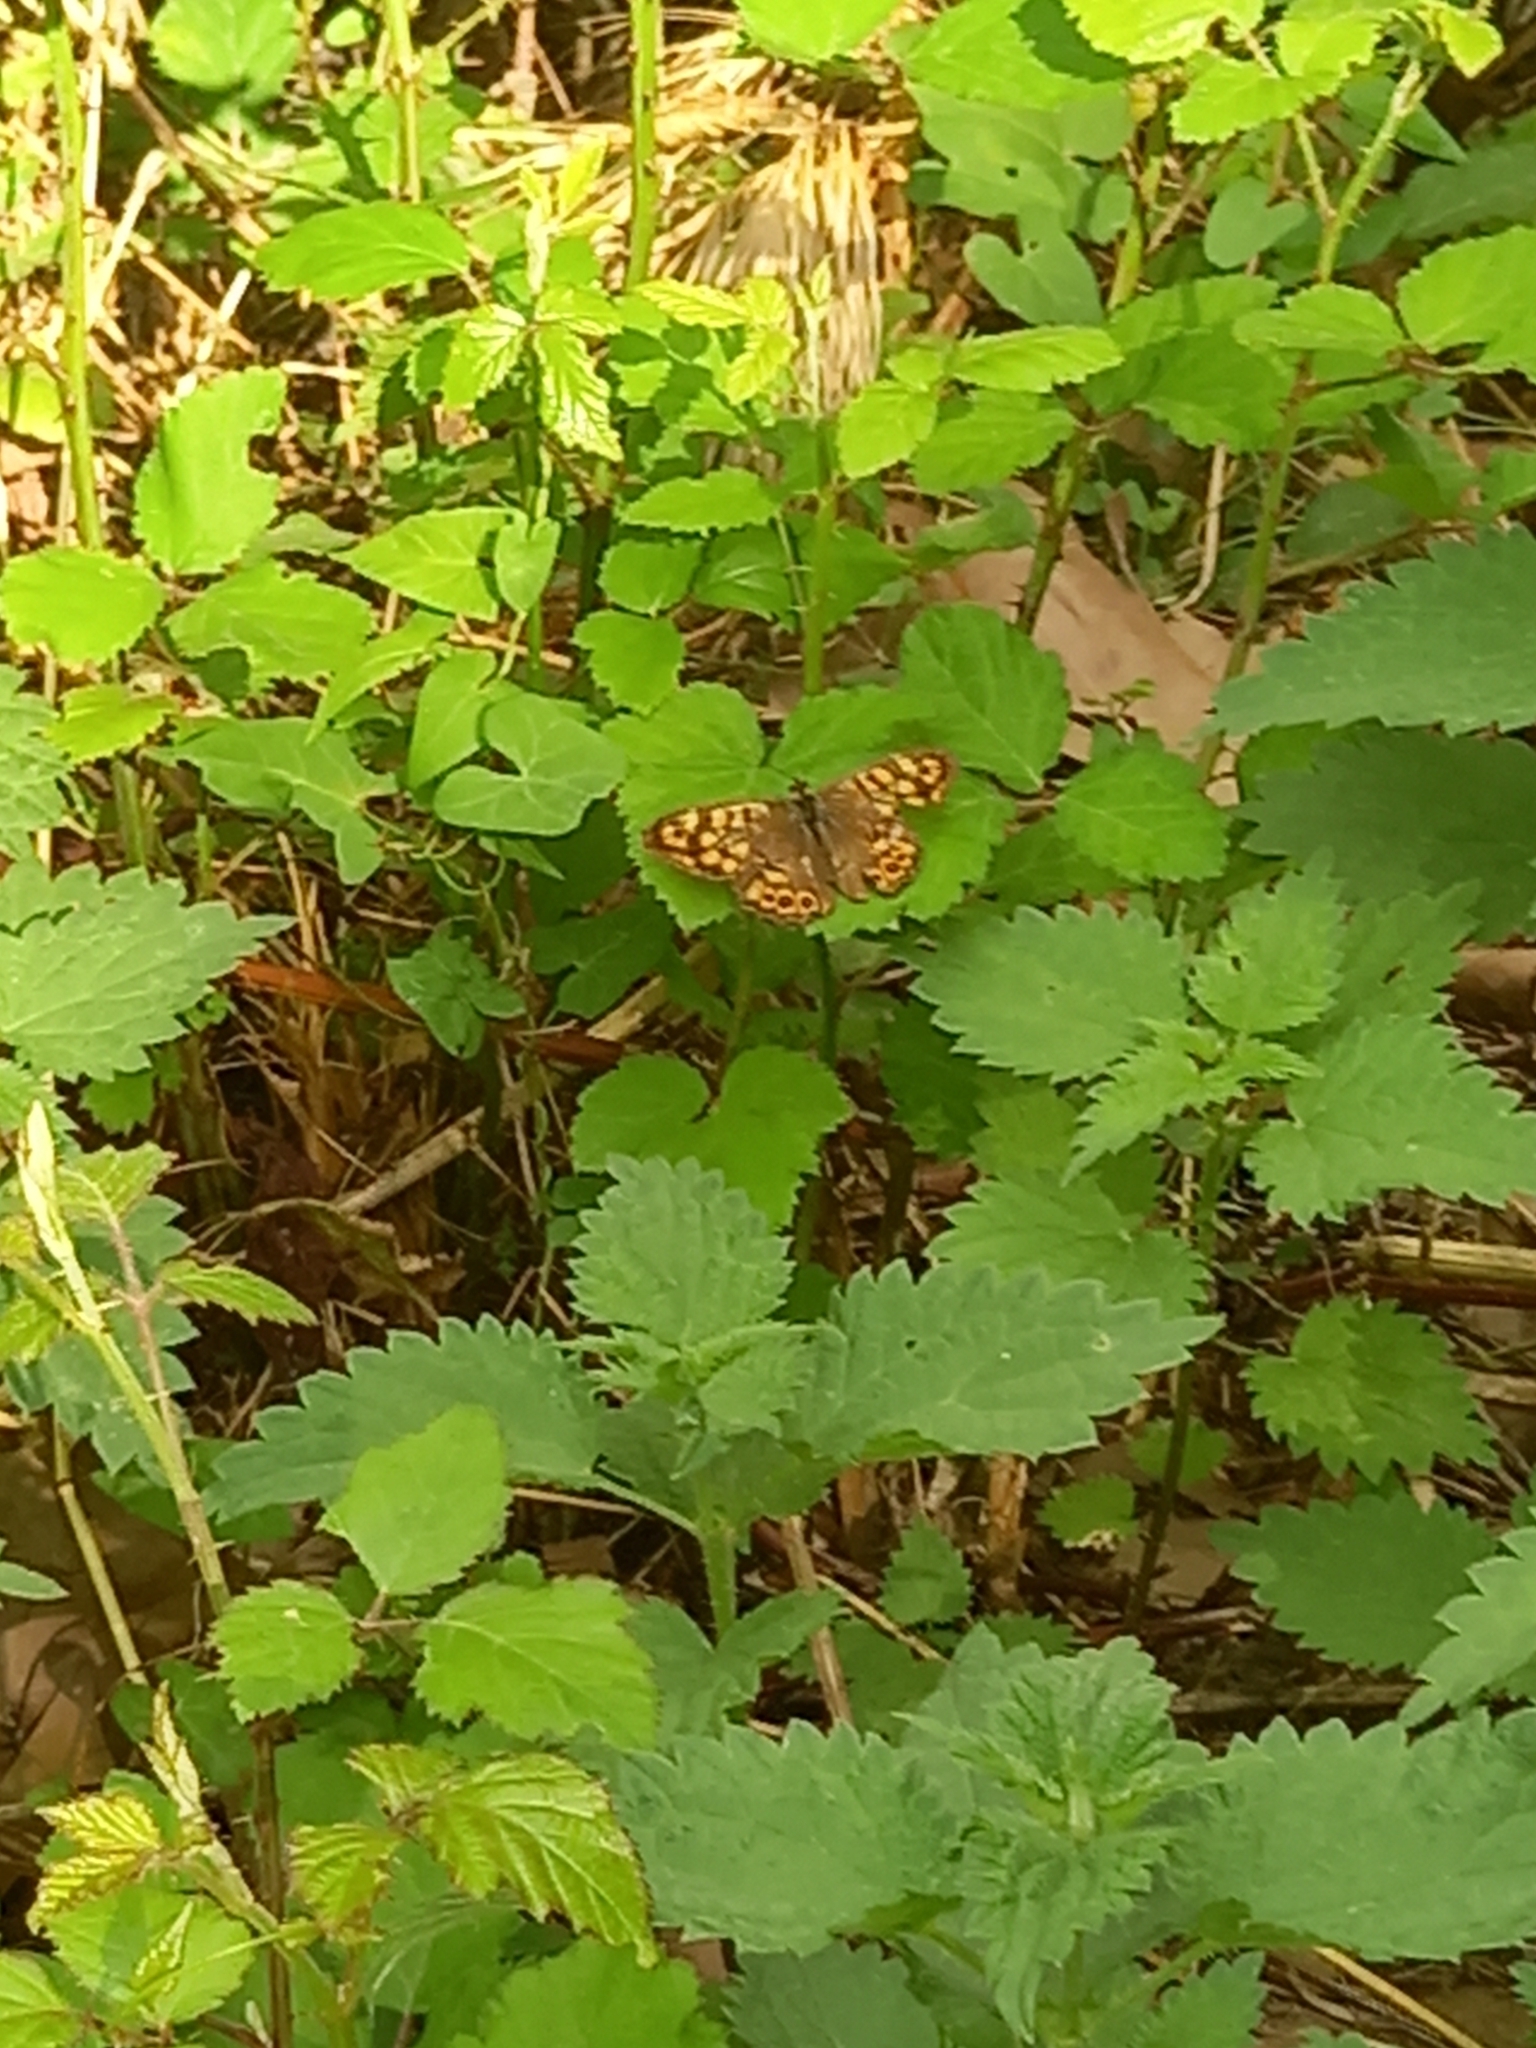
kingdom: Animalia
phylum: Arthropoda
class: Insecta
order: Lepidoptera
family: Nymphalidae
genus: Pararge
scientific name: Pararge aegeria
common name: Speckled wood
